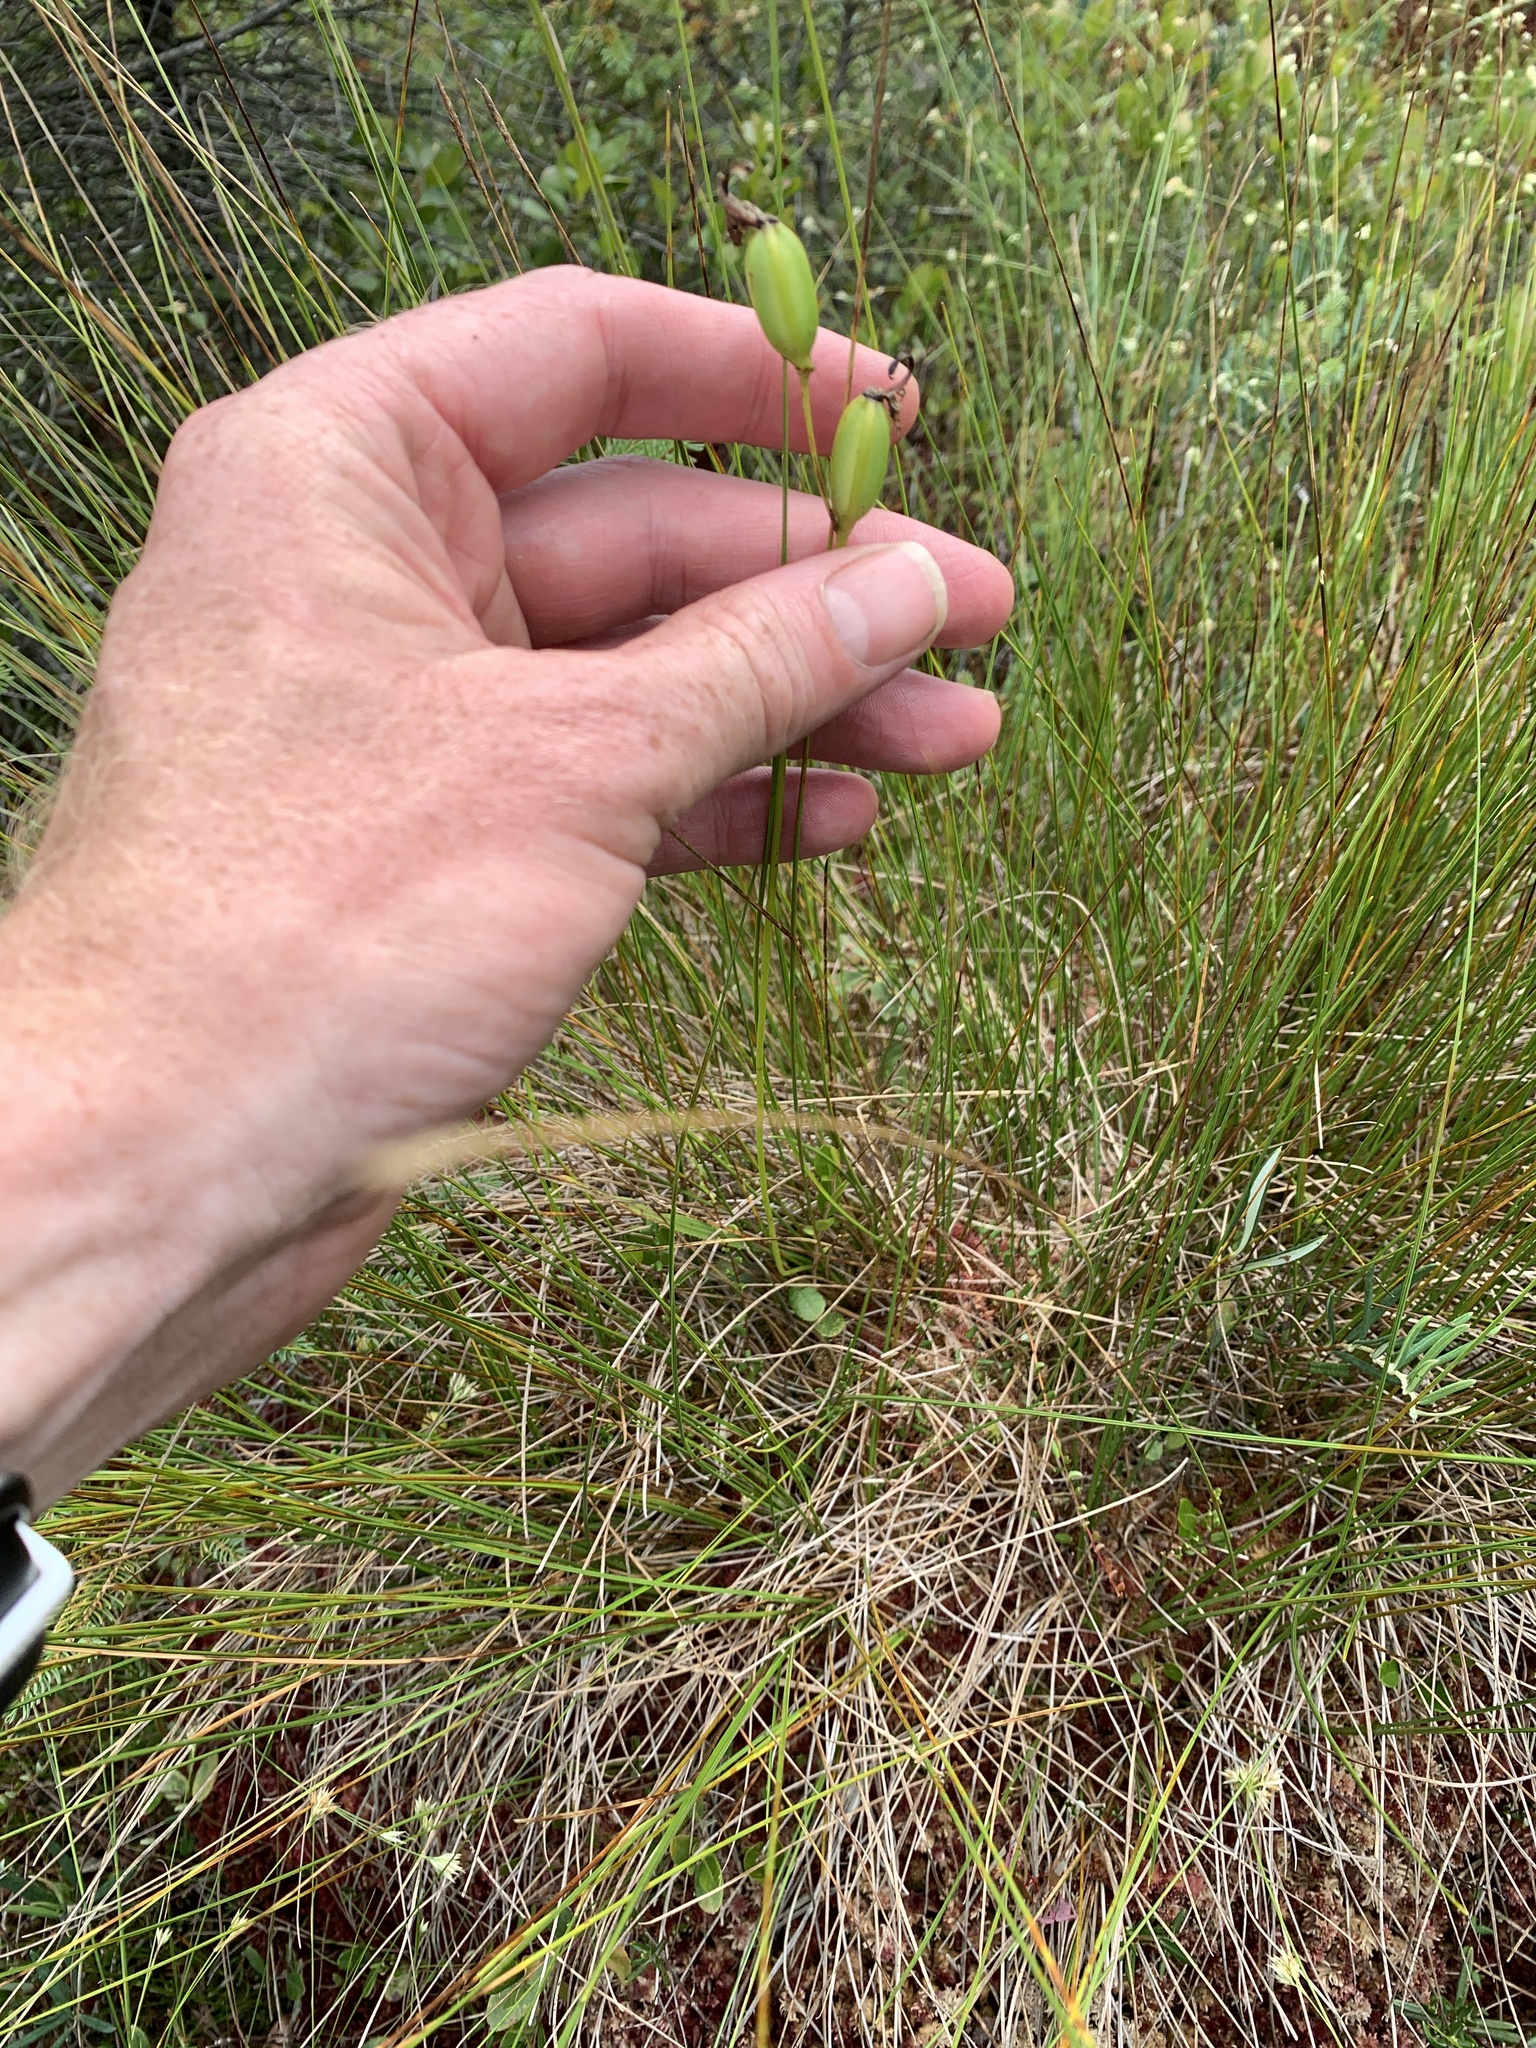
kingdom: Plantae
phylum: Tracheophyta
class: Liliopsida
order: Asparagales
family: Orchidaceae
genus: Calopogon
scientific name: Calopogon tuberosus
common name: Grass-pink
